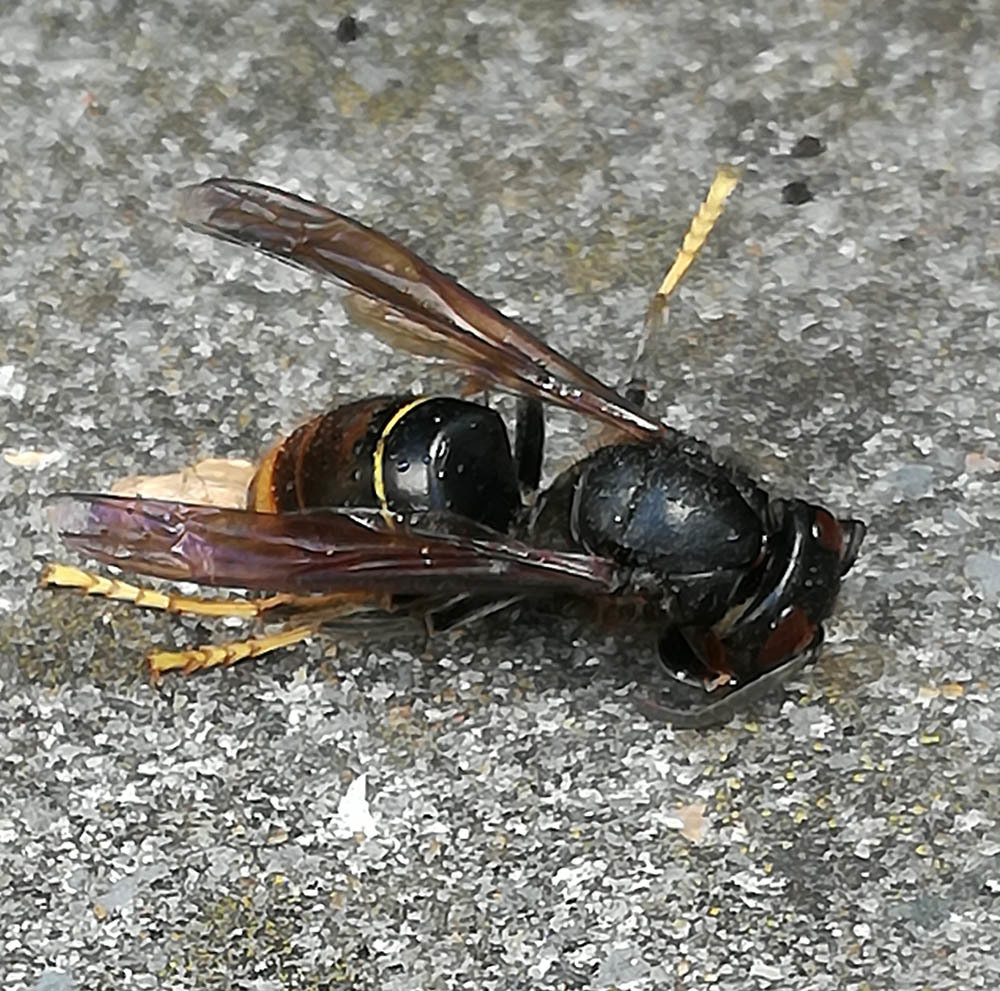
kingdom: Animalia
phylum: Arthropoda
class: Insecta
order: Hymenoptera
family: Vespidae
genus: Vespa
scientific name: Vespa velutina
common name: Asian hornet
